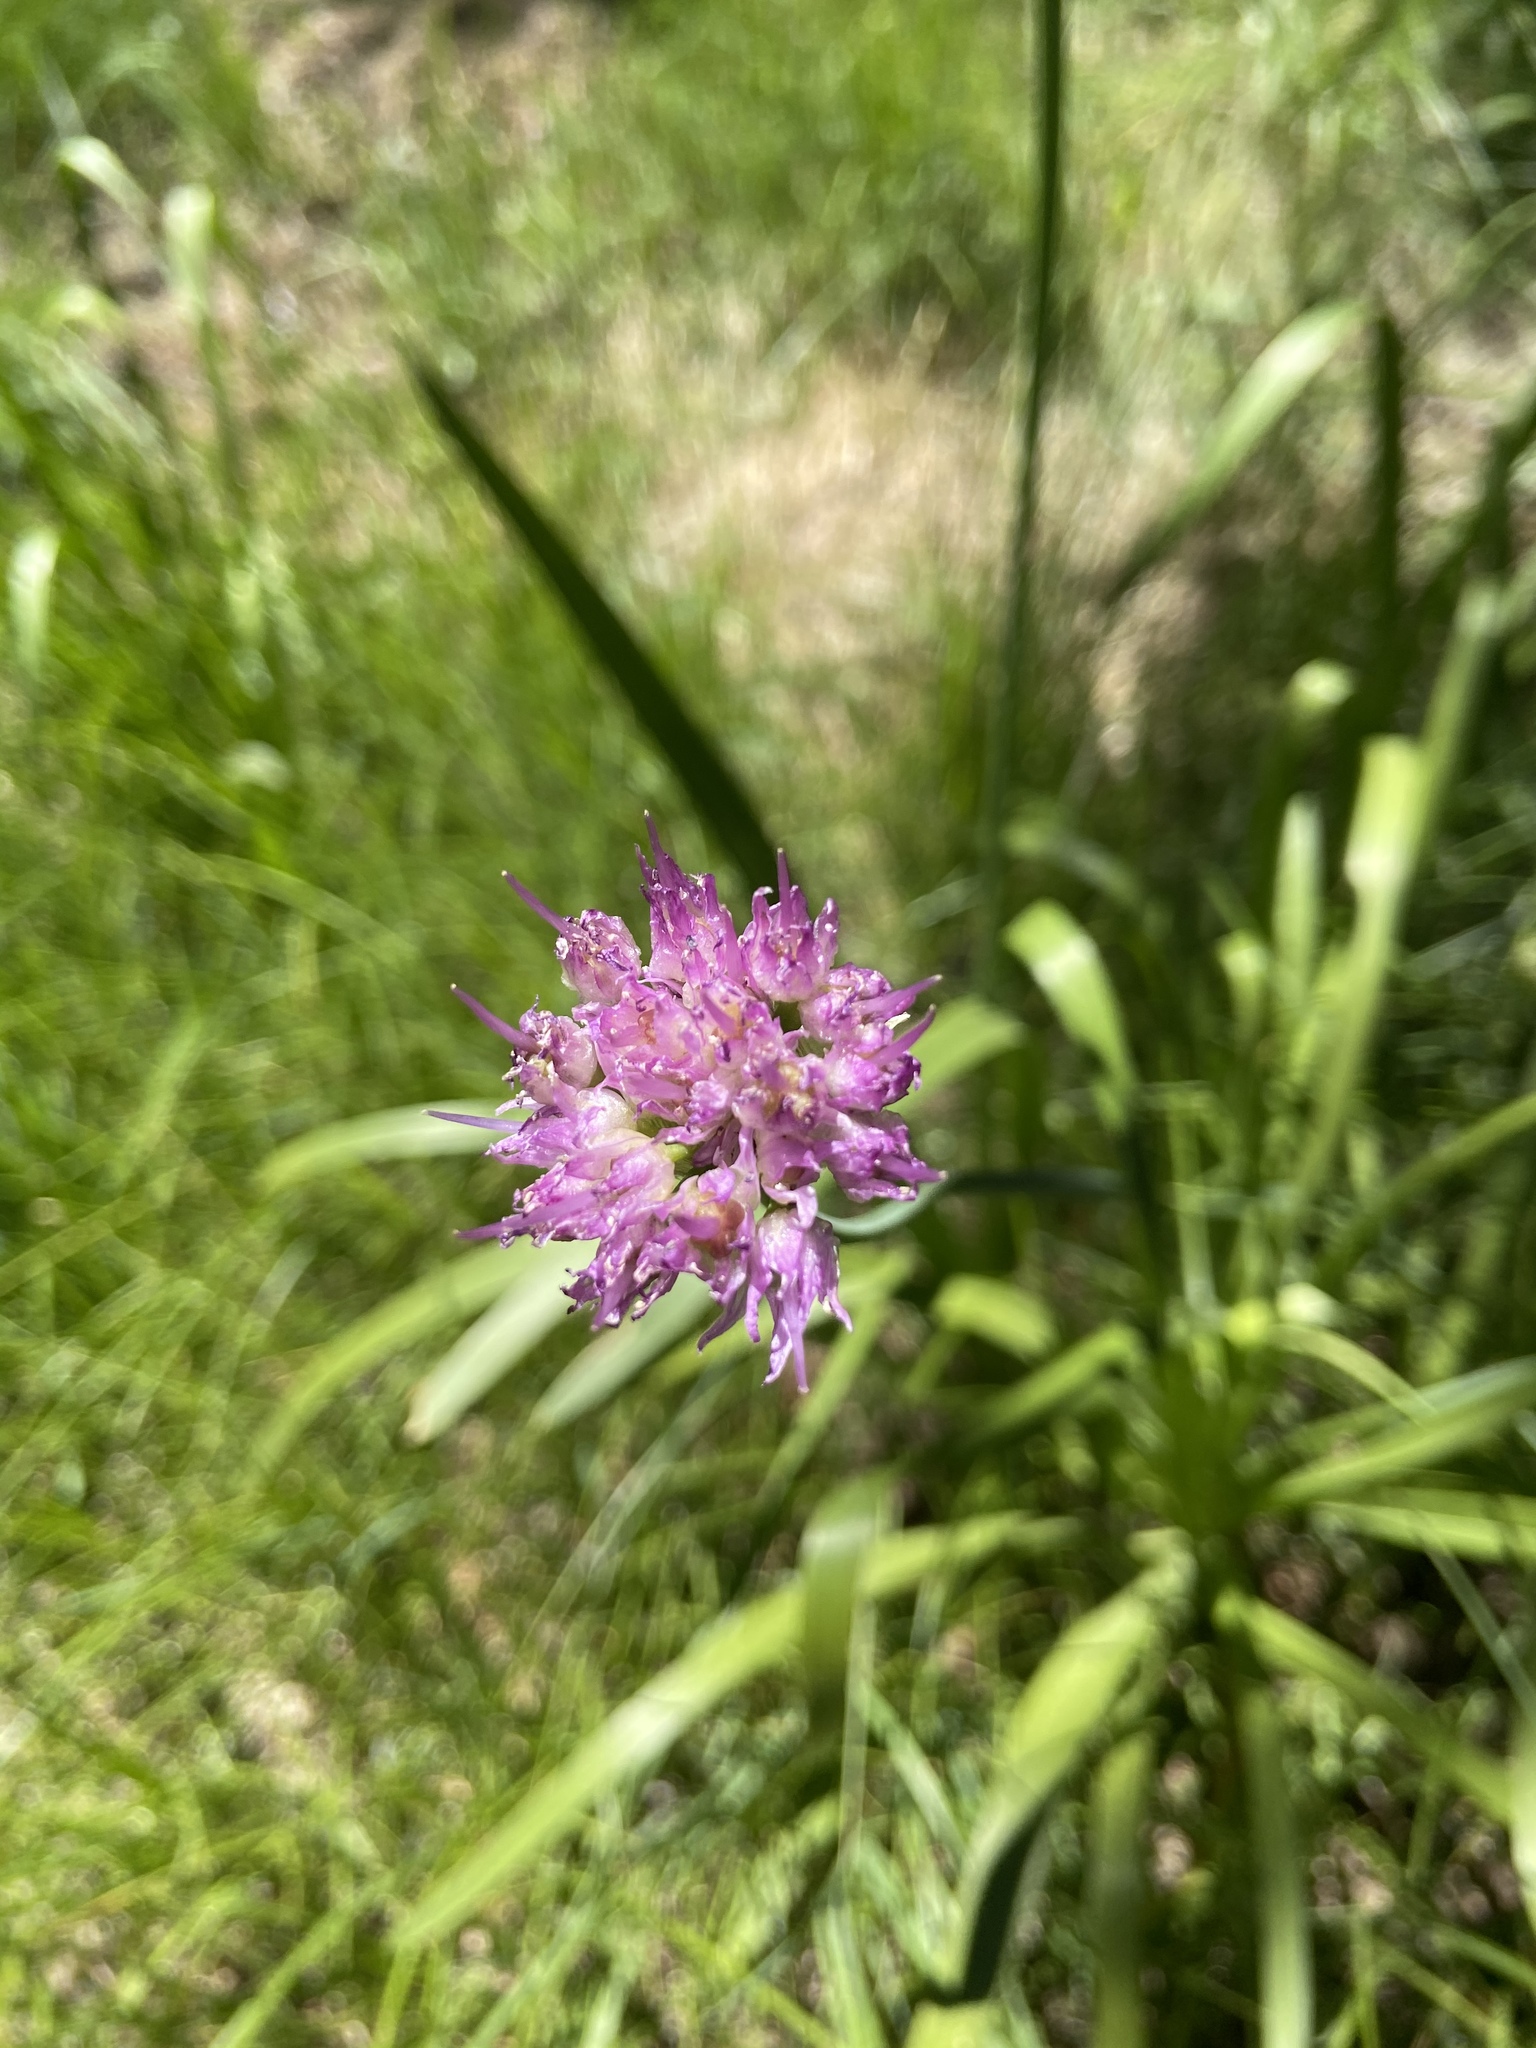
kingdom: Plantae
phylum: Tracheophyta
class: Liliopsida
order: Asparagales
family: Amaryllidaceae
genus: Allium
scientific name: Allium validum
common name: Pacific mountain onion
